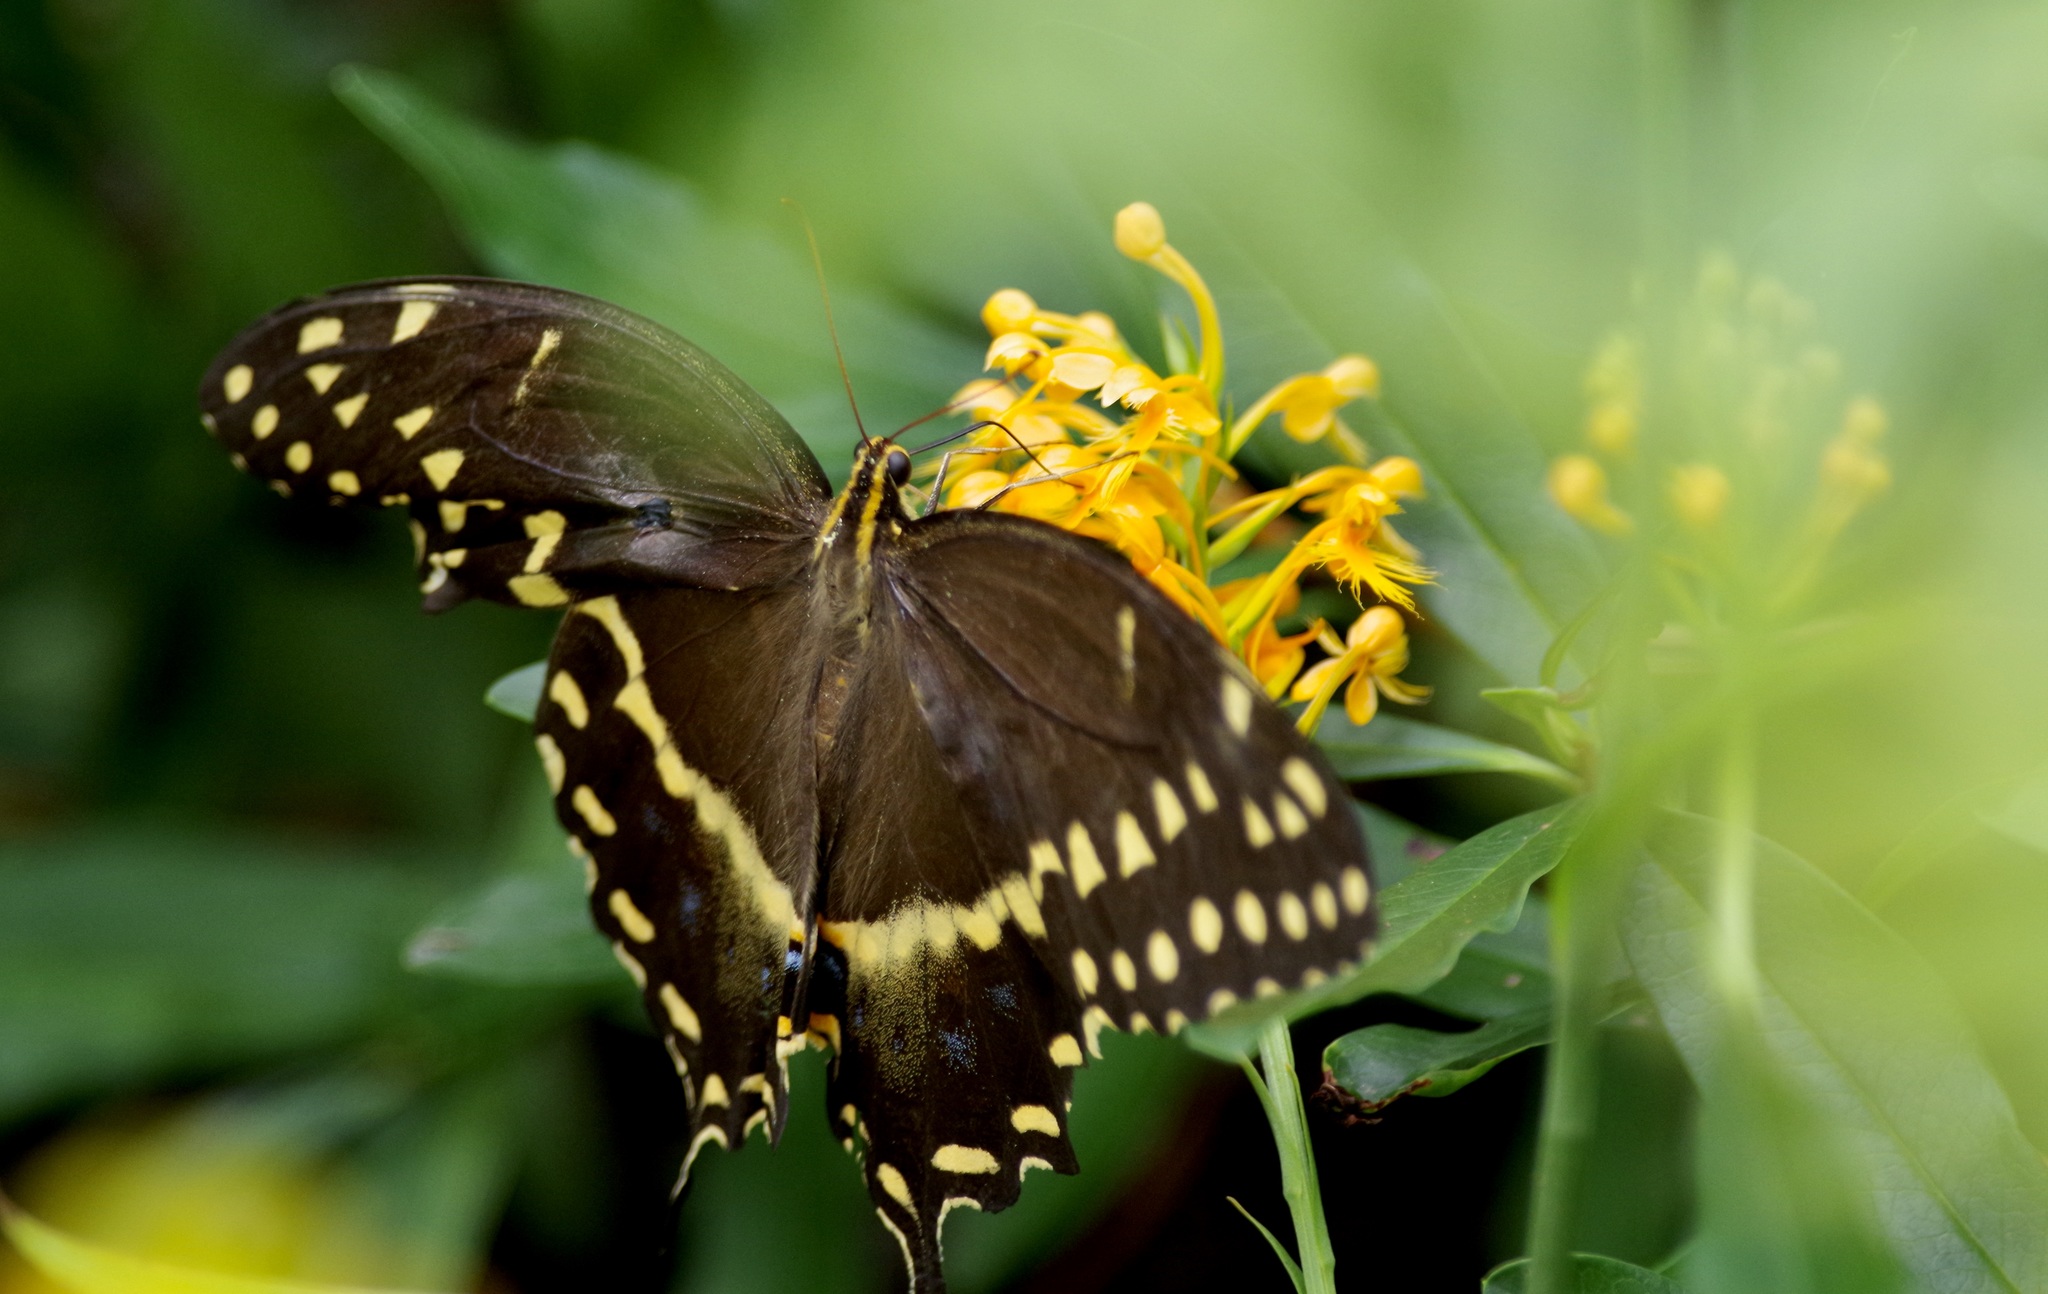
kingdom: Animalia
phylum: Arthropoda
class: Insecta
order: Lepidoptera
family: Papilionidae
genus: Papilio
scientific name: Papilio palamedes
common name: Palamedes swallowtail
